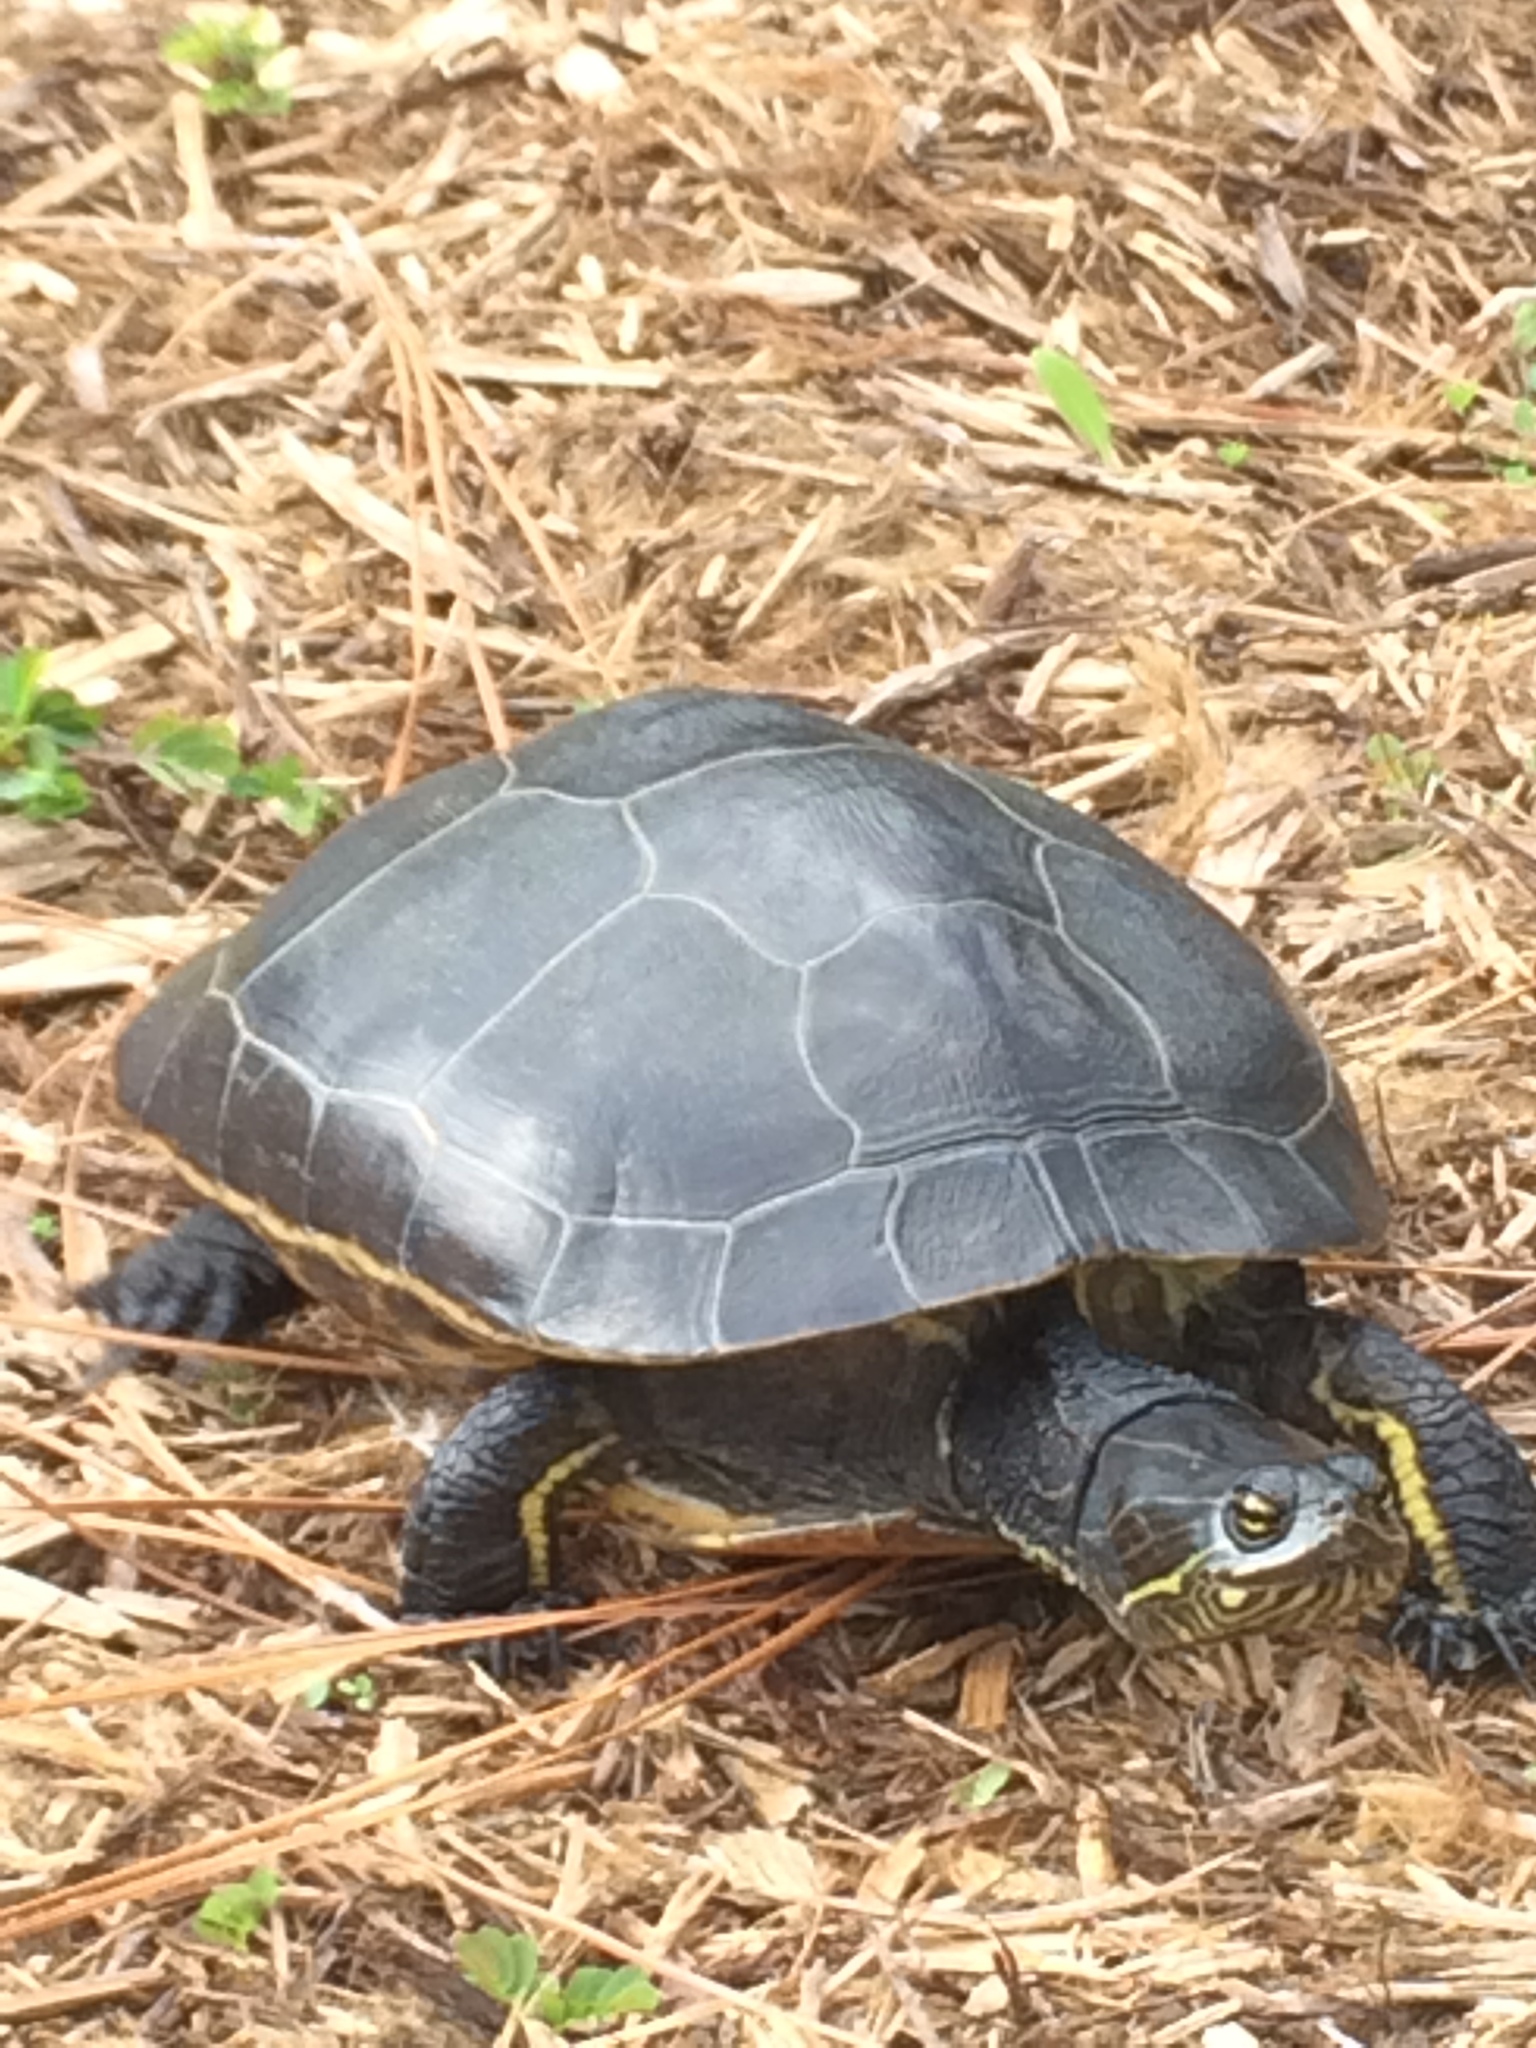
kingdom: Animalia
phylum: Chordata
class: Testudines
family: Emydidae
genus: Deirochelys
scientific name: Deirochelys reticularia
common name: Chicken turtle
